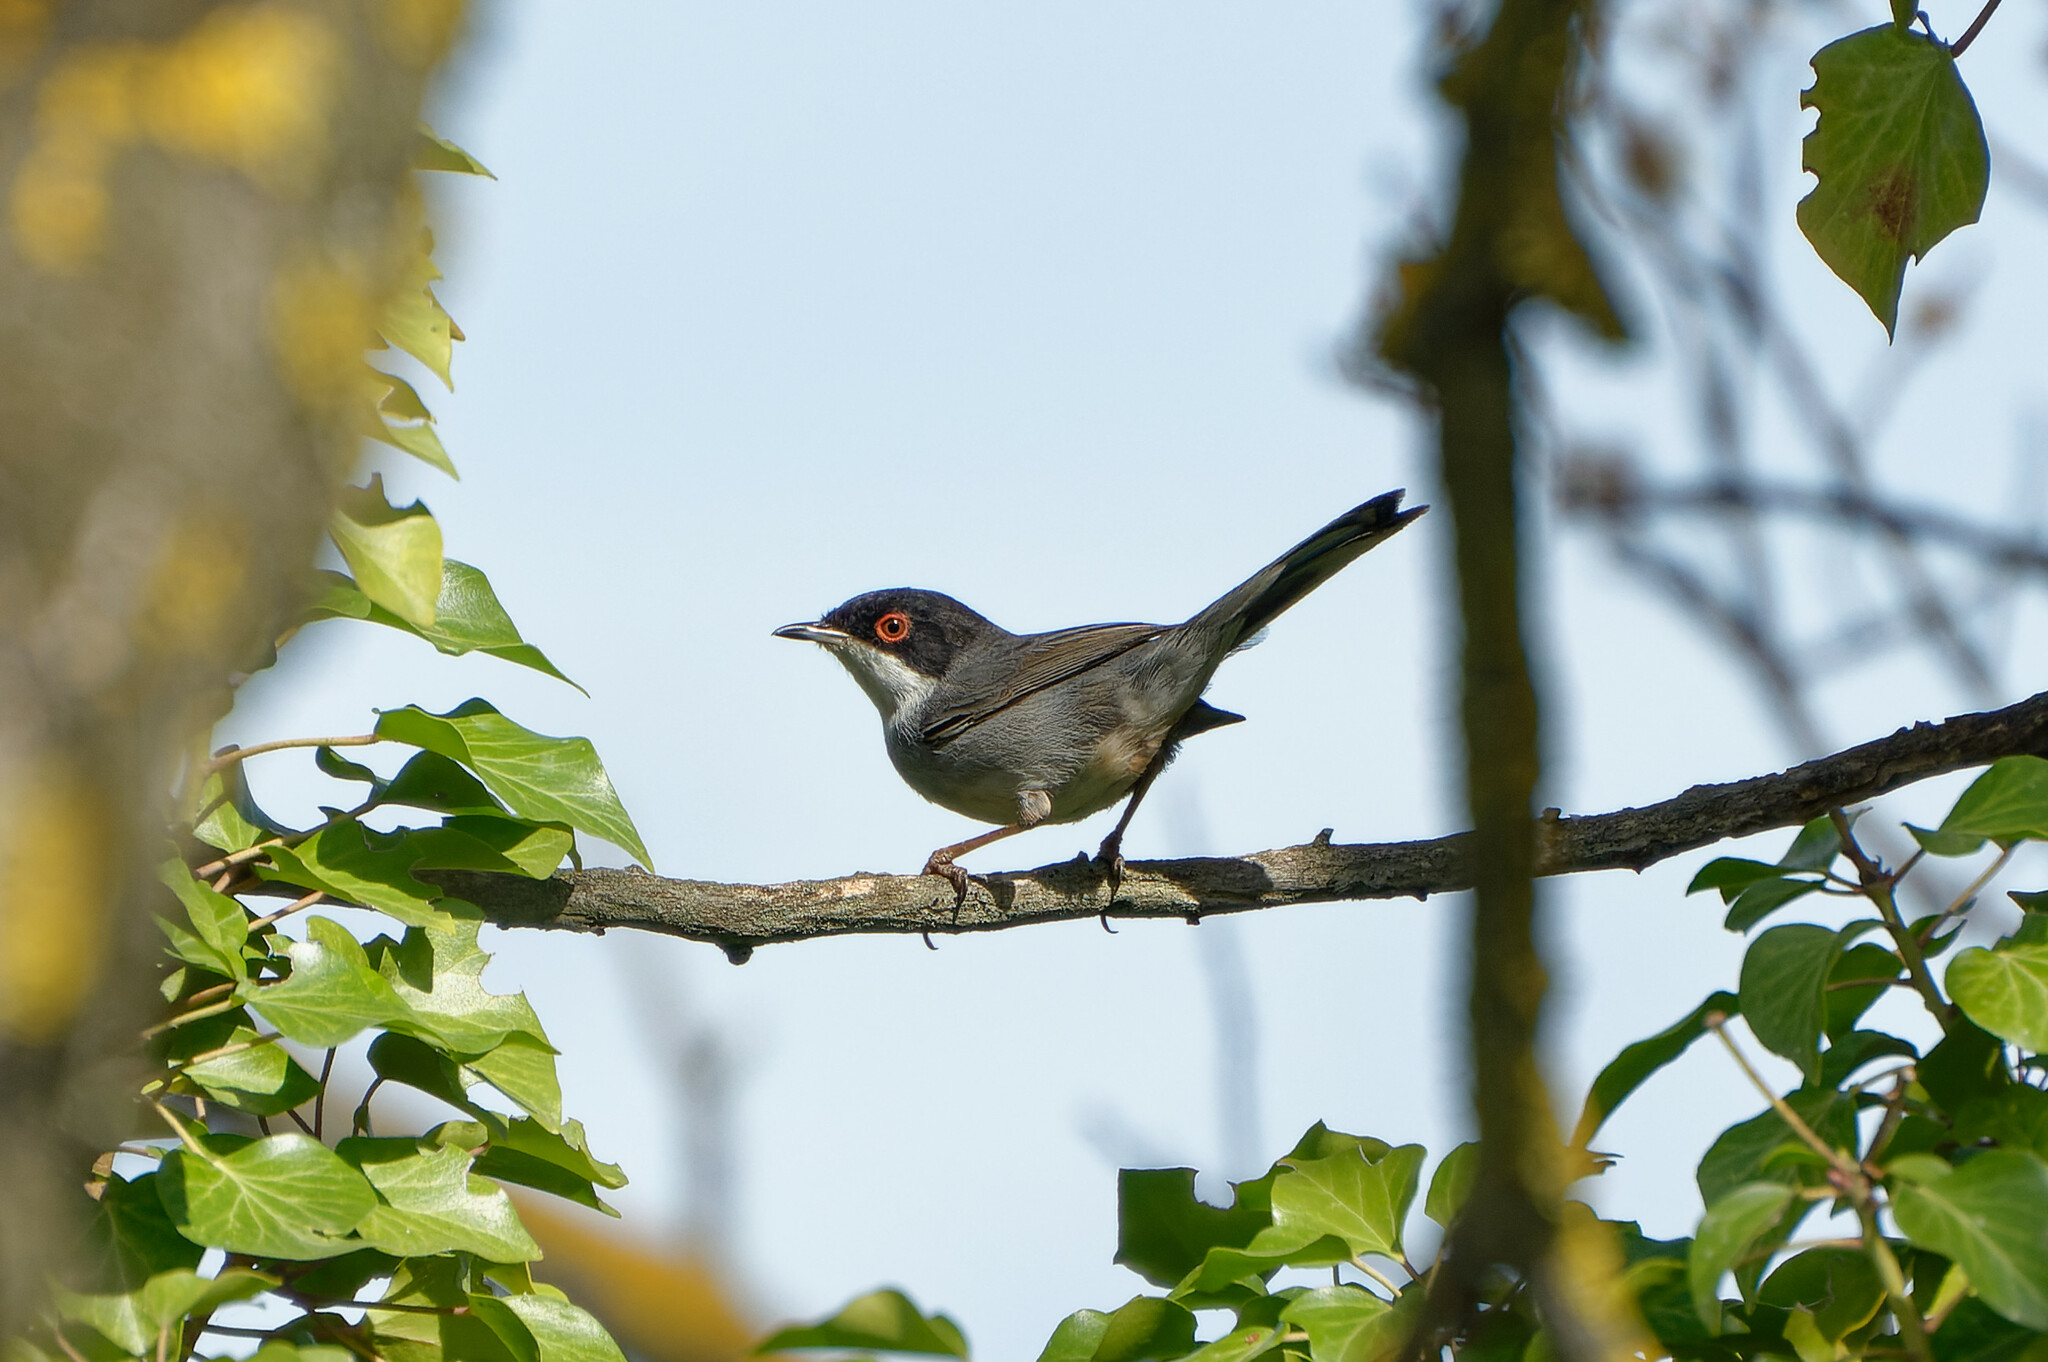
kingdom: Animalia
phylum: Chordata
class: Aves
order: Passeriformes
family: Sylviidae
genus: Curruca
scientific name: Curruca melanocephala
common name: Sardinian warbler
